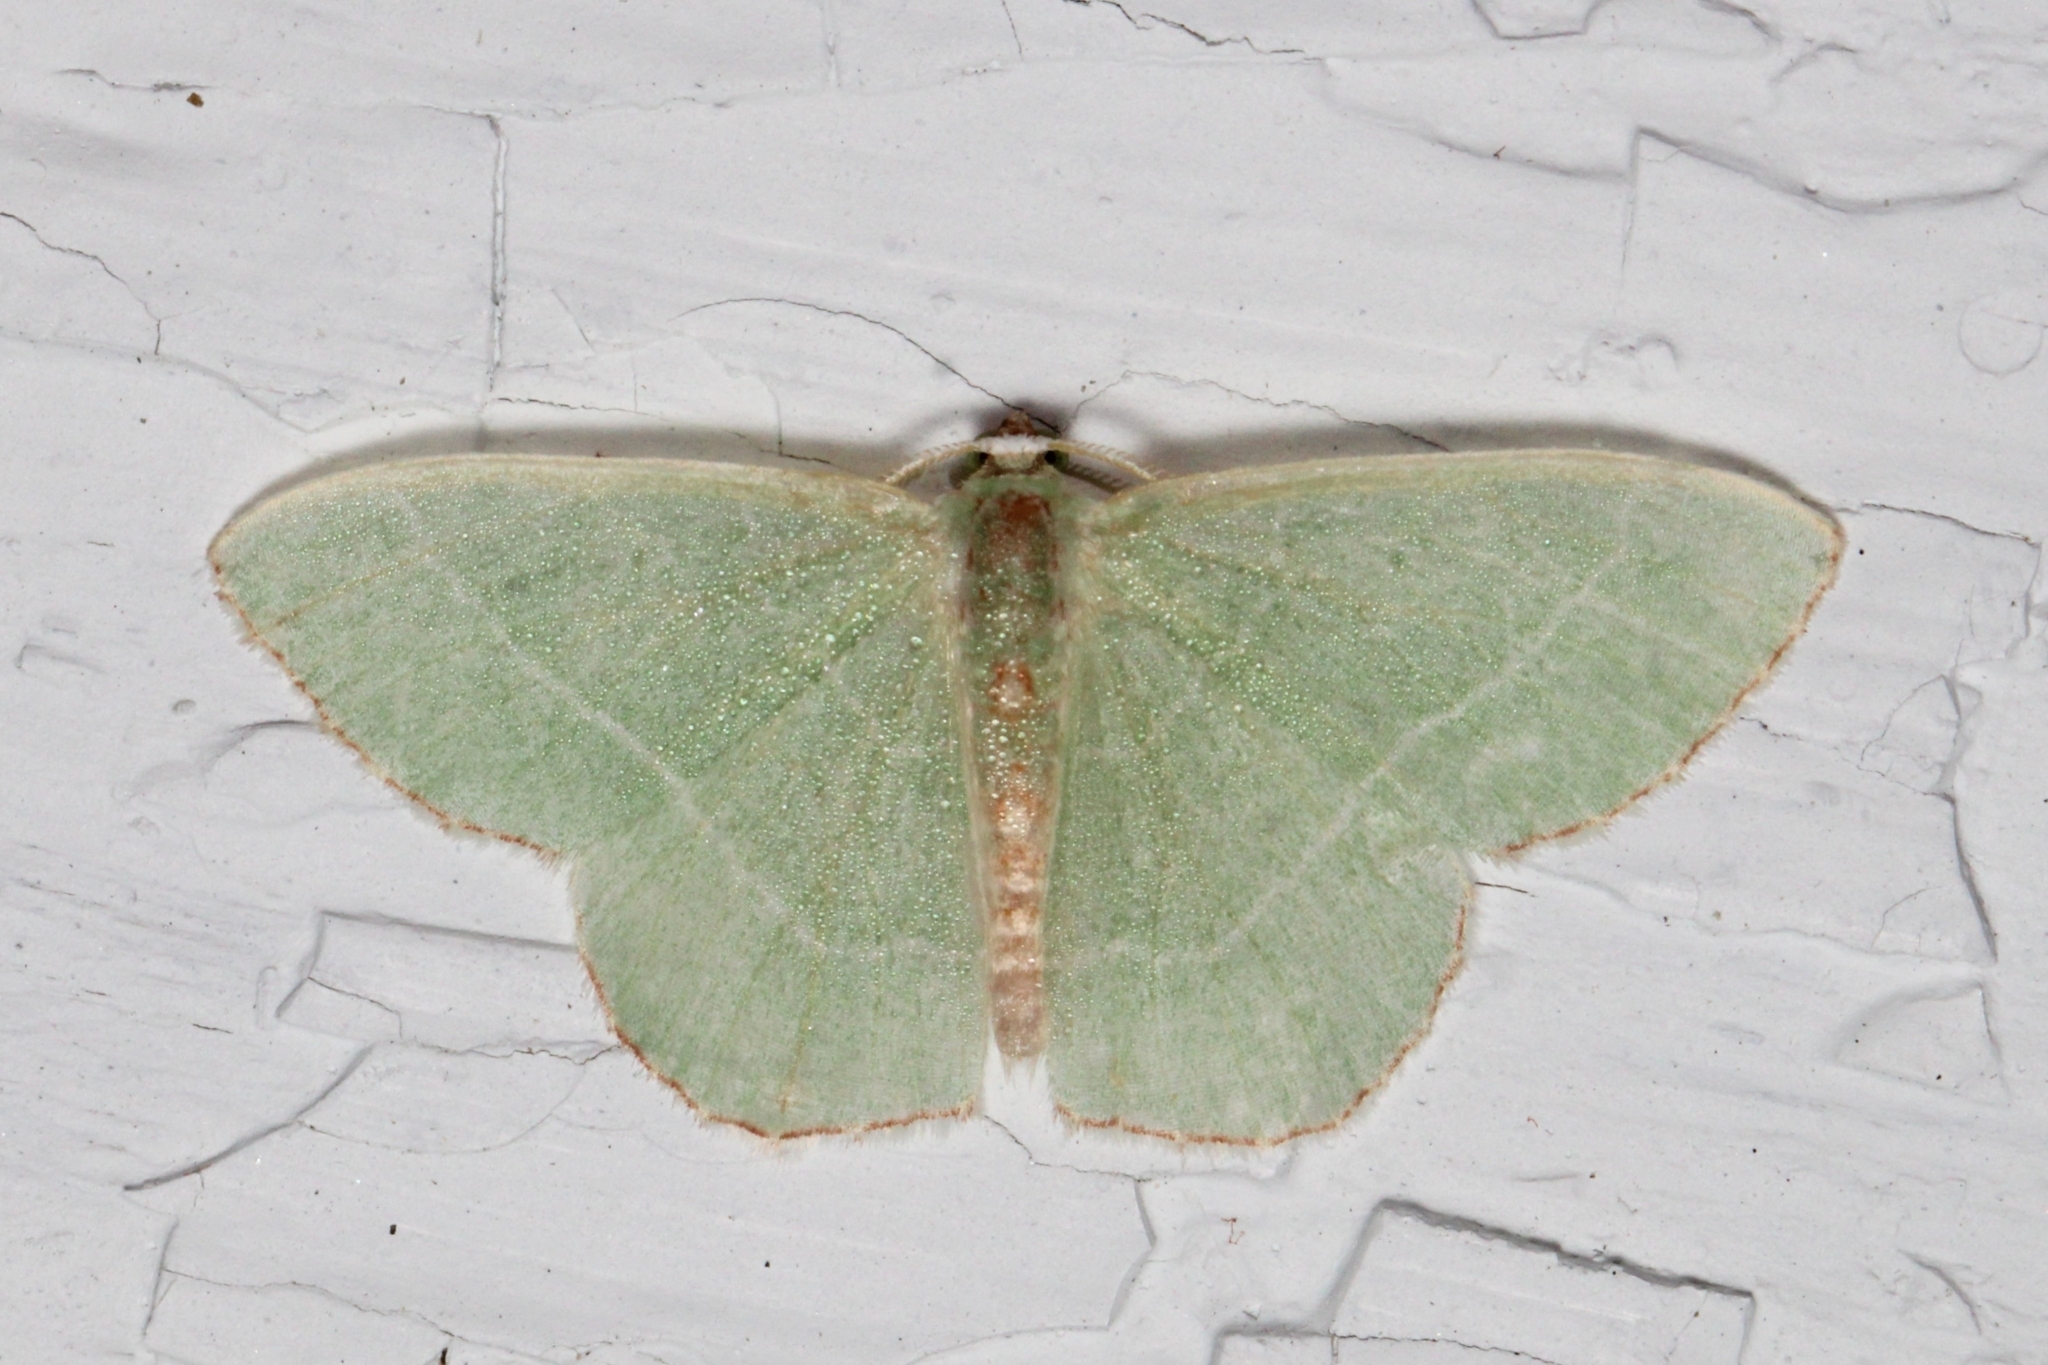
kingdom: Animalia
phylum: Arthropoda
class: Insecta
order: Lepidoptera
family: Geometridae
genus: Nemoria
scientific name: Nemoria bistriaria
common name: Red-fringed emerald
